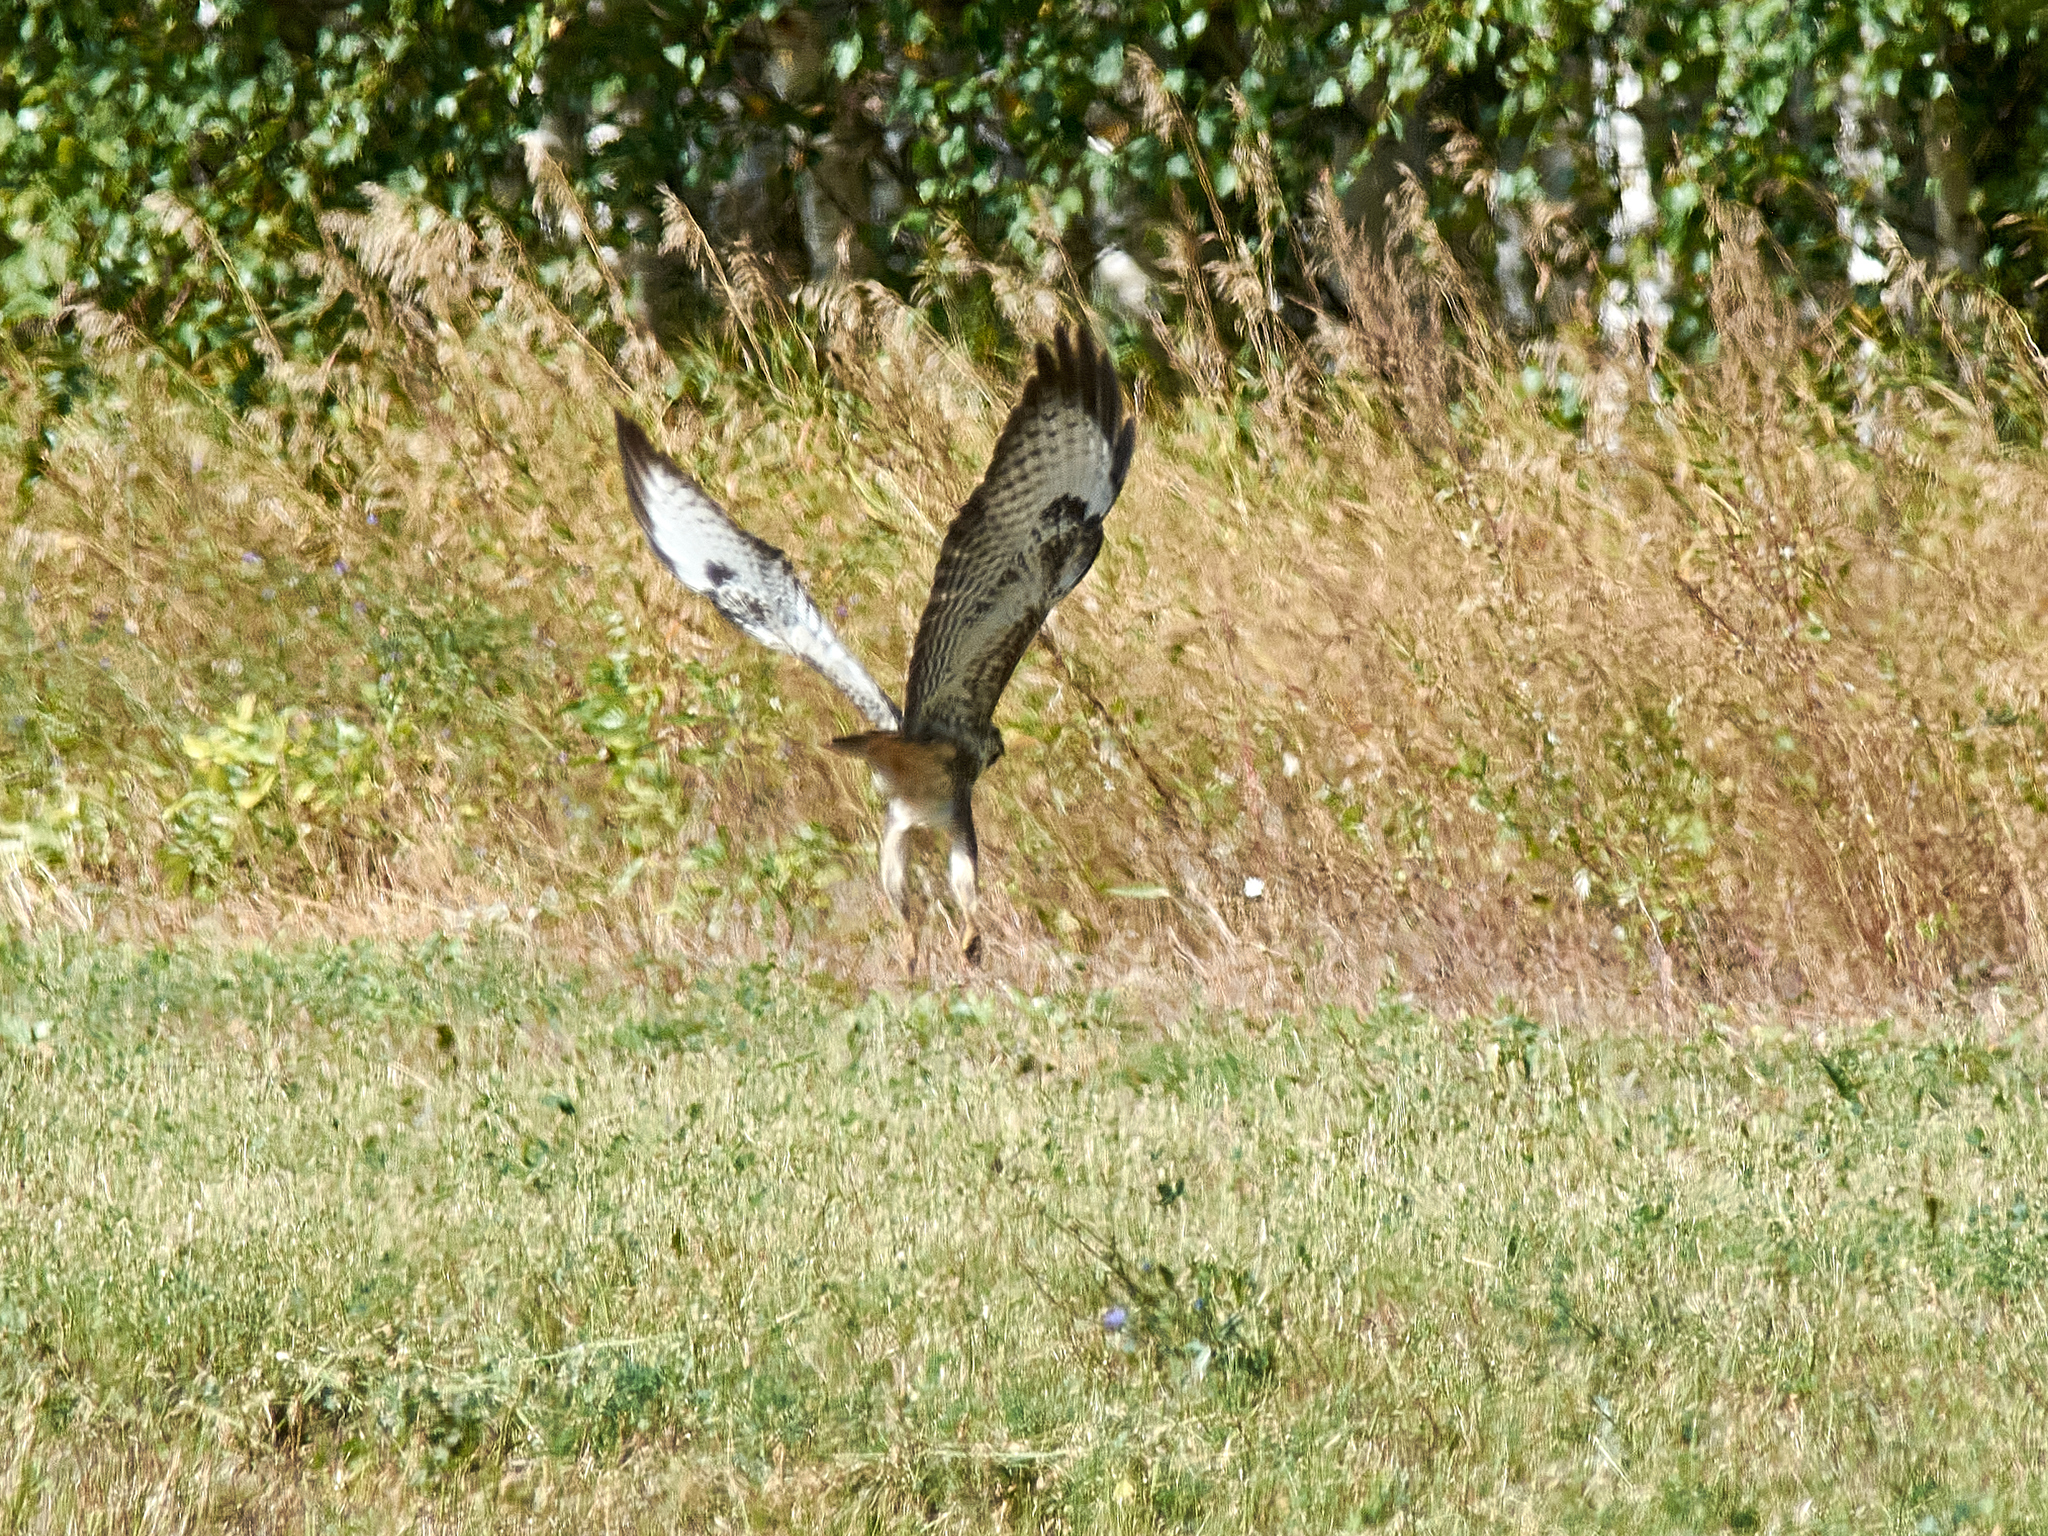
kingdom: Animalia
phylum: Chordata
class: Aves
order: Accipitriformes
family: Accipitridae
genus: Buteo
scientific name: Buteo buteo
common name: Common buzzard
